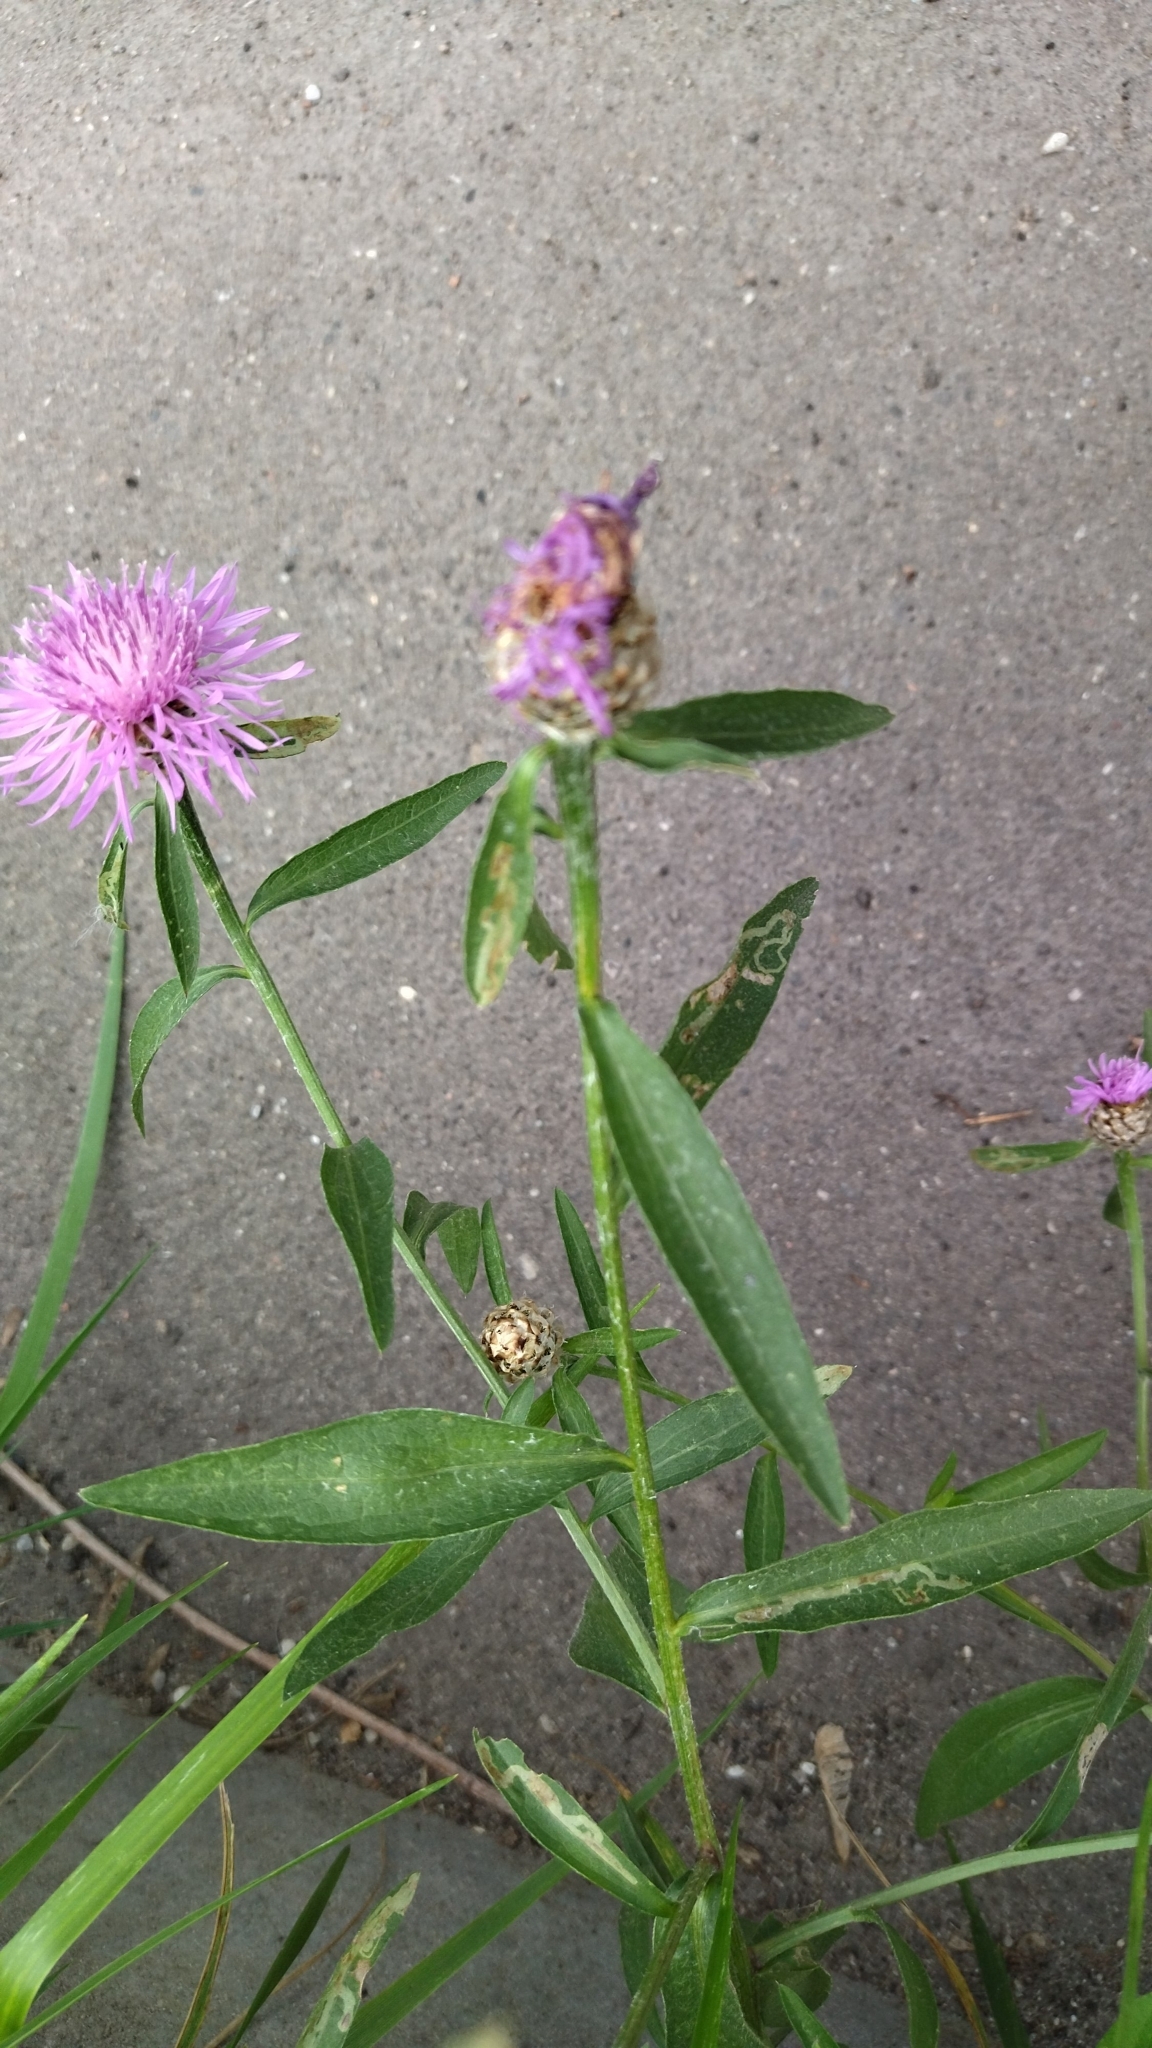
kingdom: Plantae
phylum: Tracheophyta
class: Magnoliopsida
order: Asterales
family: Asteraceae
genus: Centaurea
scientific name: Centaurea jacea
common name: Brown knapweed
